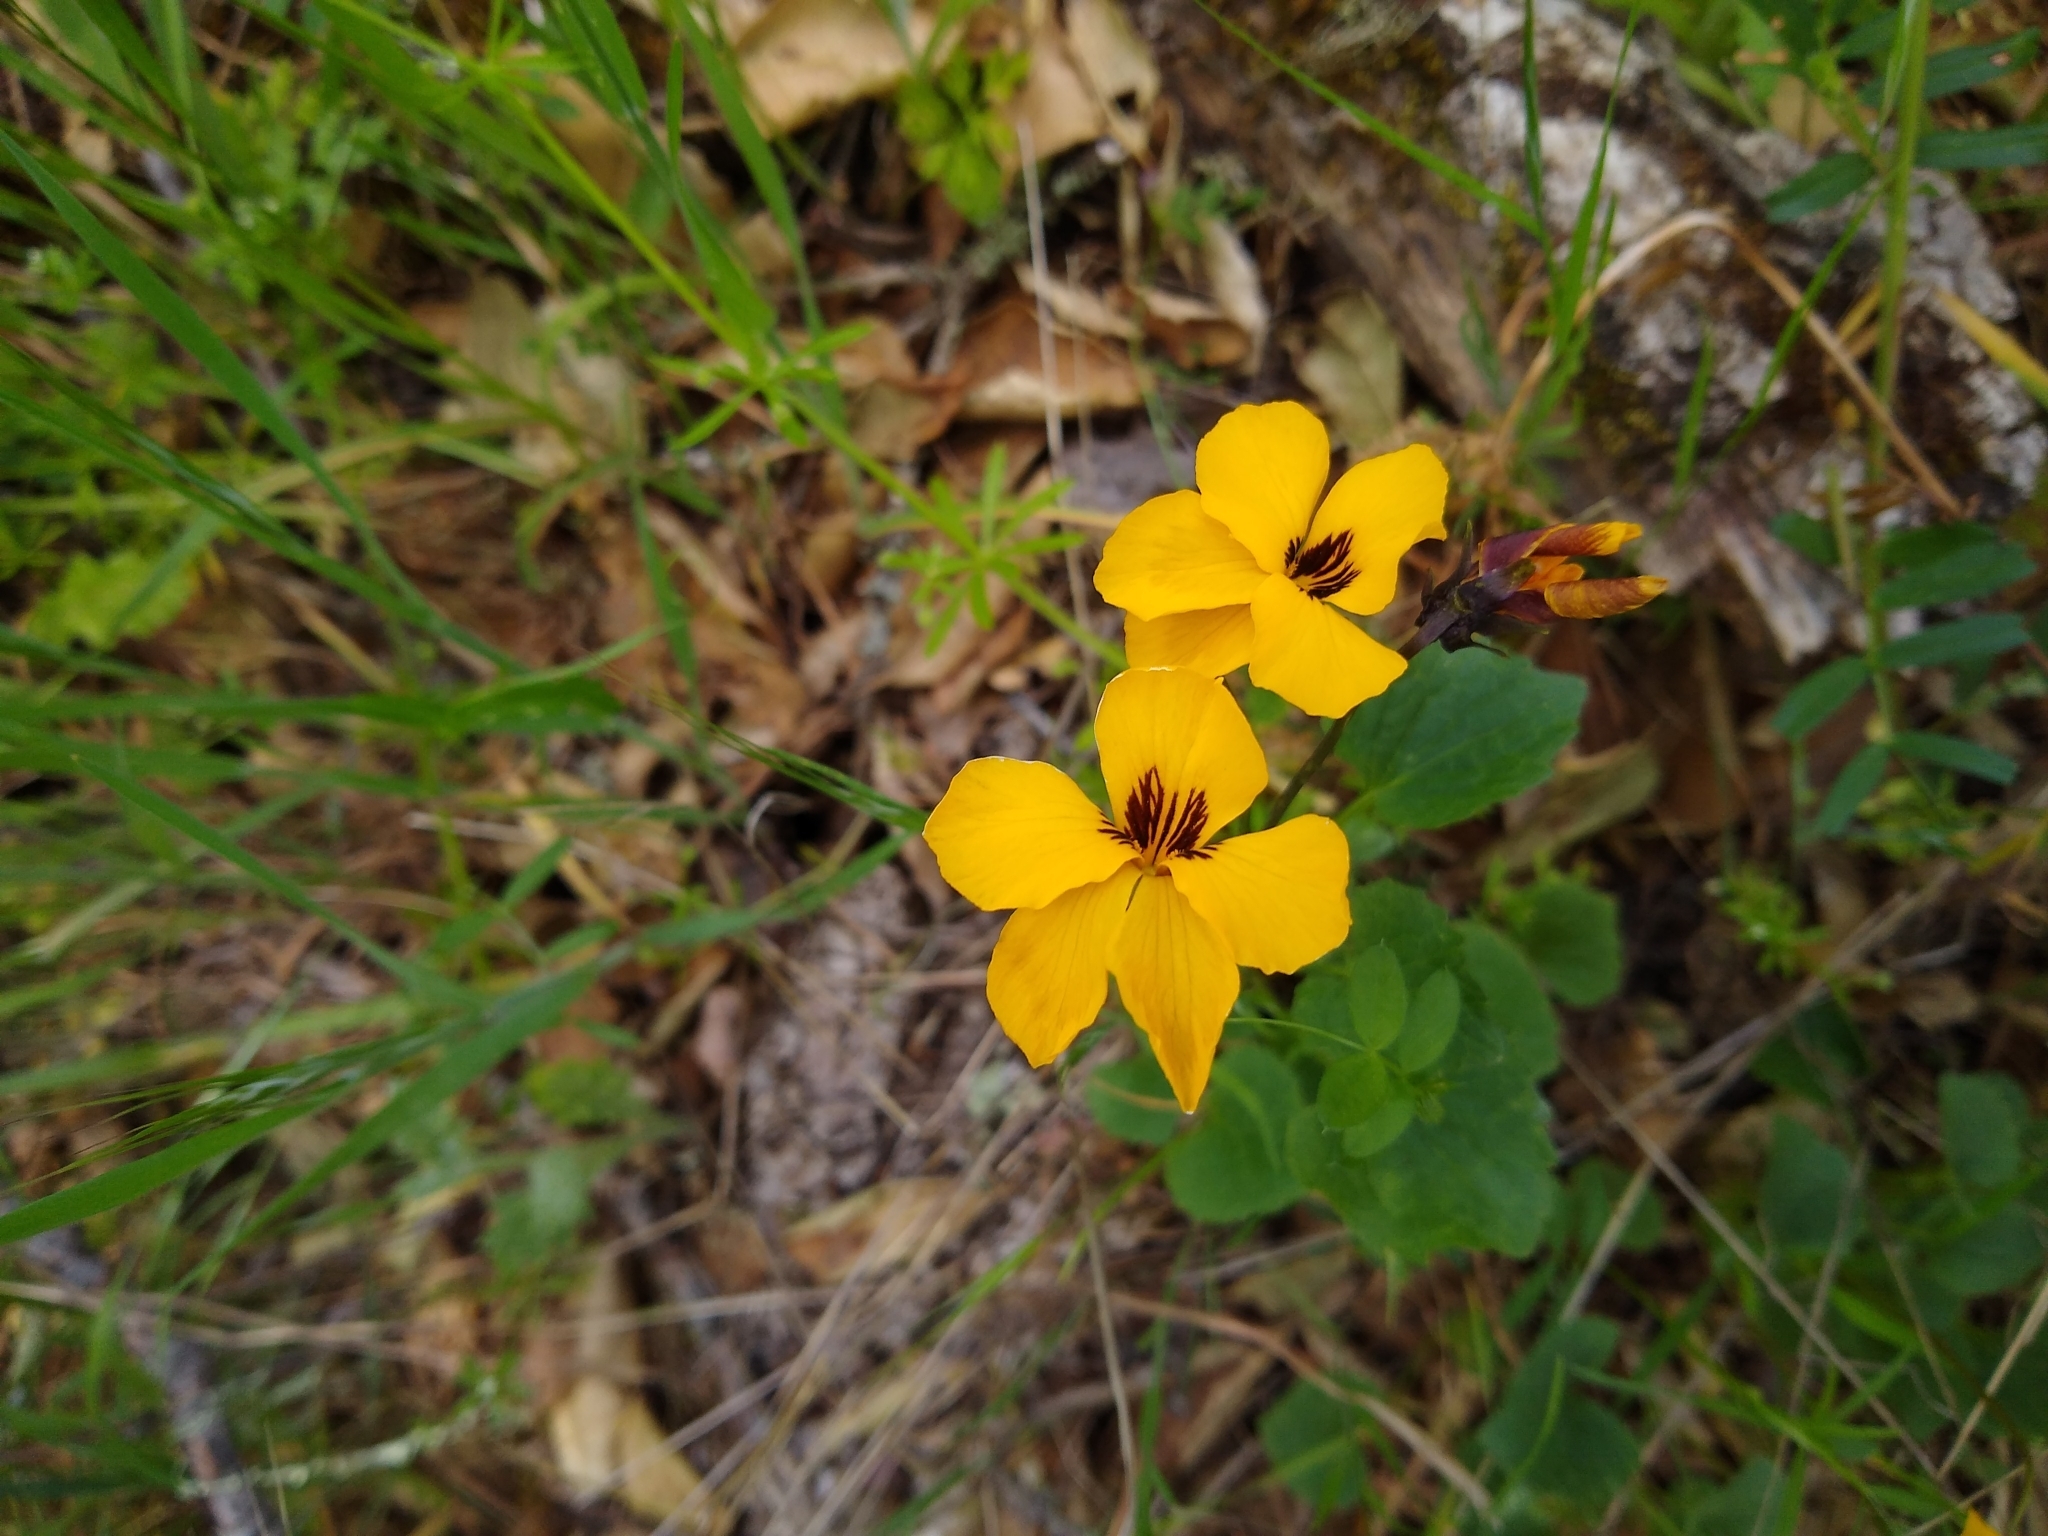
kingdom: Plantae
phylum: Tracheophyta
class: Magnoliopsida
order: Malpighiales
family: Violaceae
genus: Viola
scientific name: Viola pedunculata
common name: California golden violet
